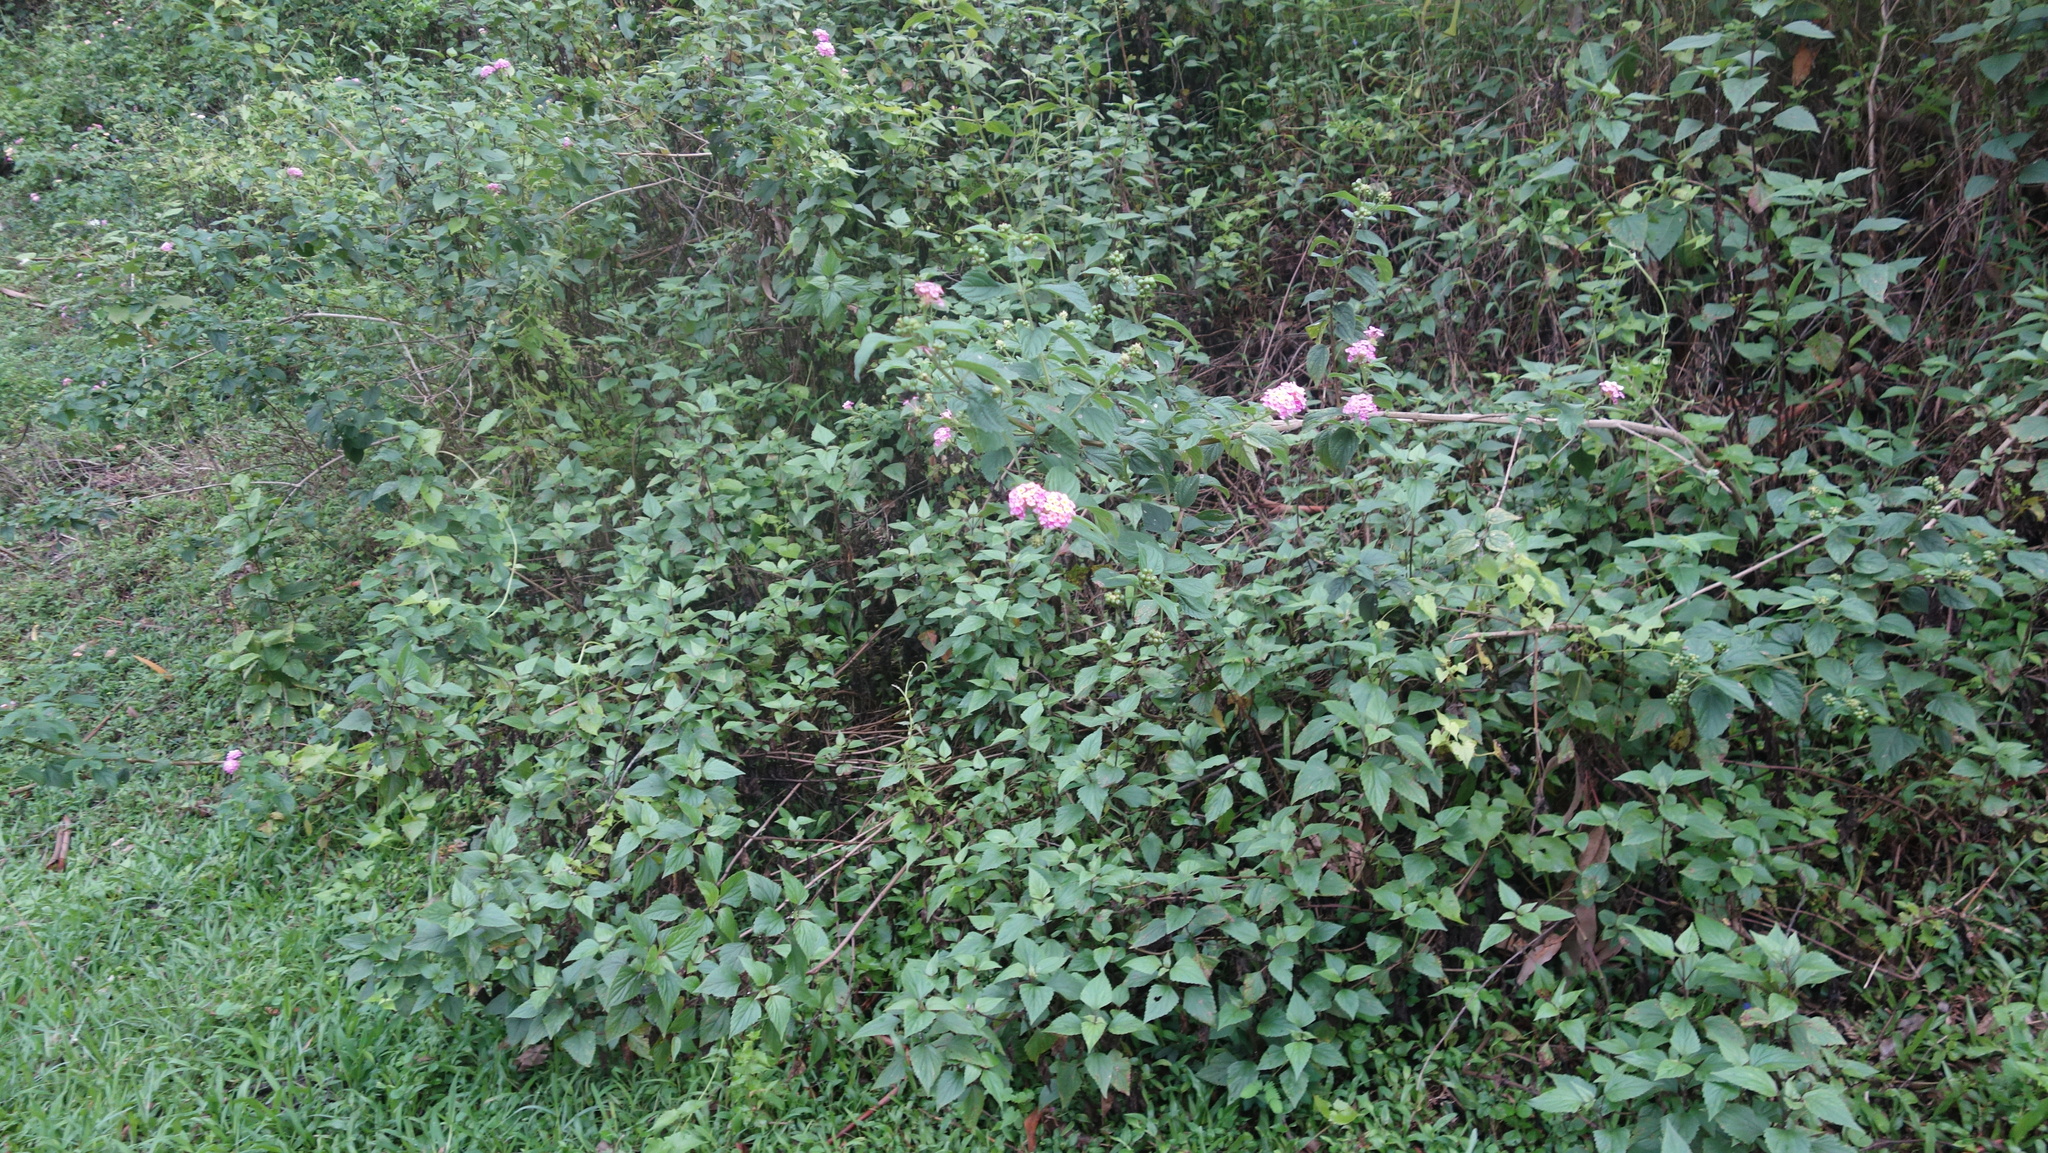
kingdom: Plantae
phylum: Tracheophyta
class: Magnoliopsida
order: Lamiales
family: Verbenaceae
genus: Lantana
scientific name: Lantana camara
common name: Lantana
